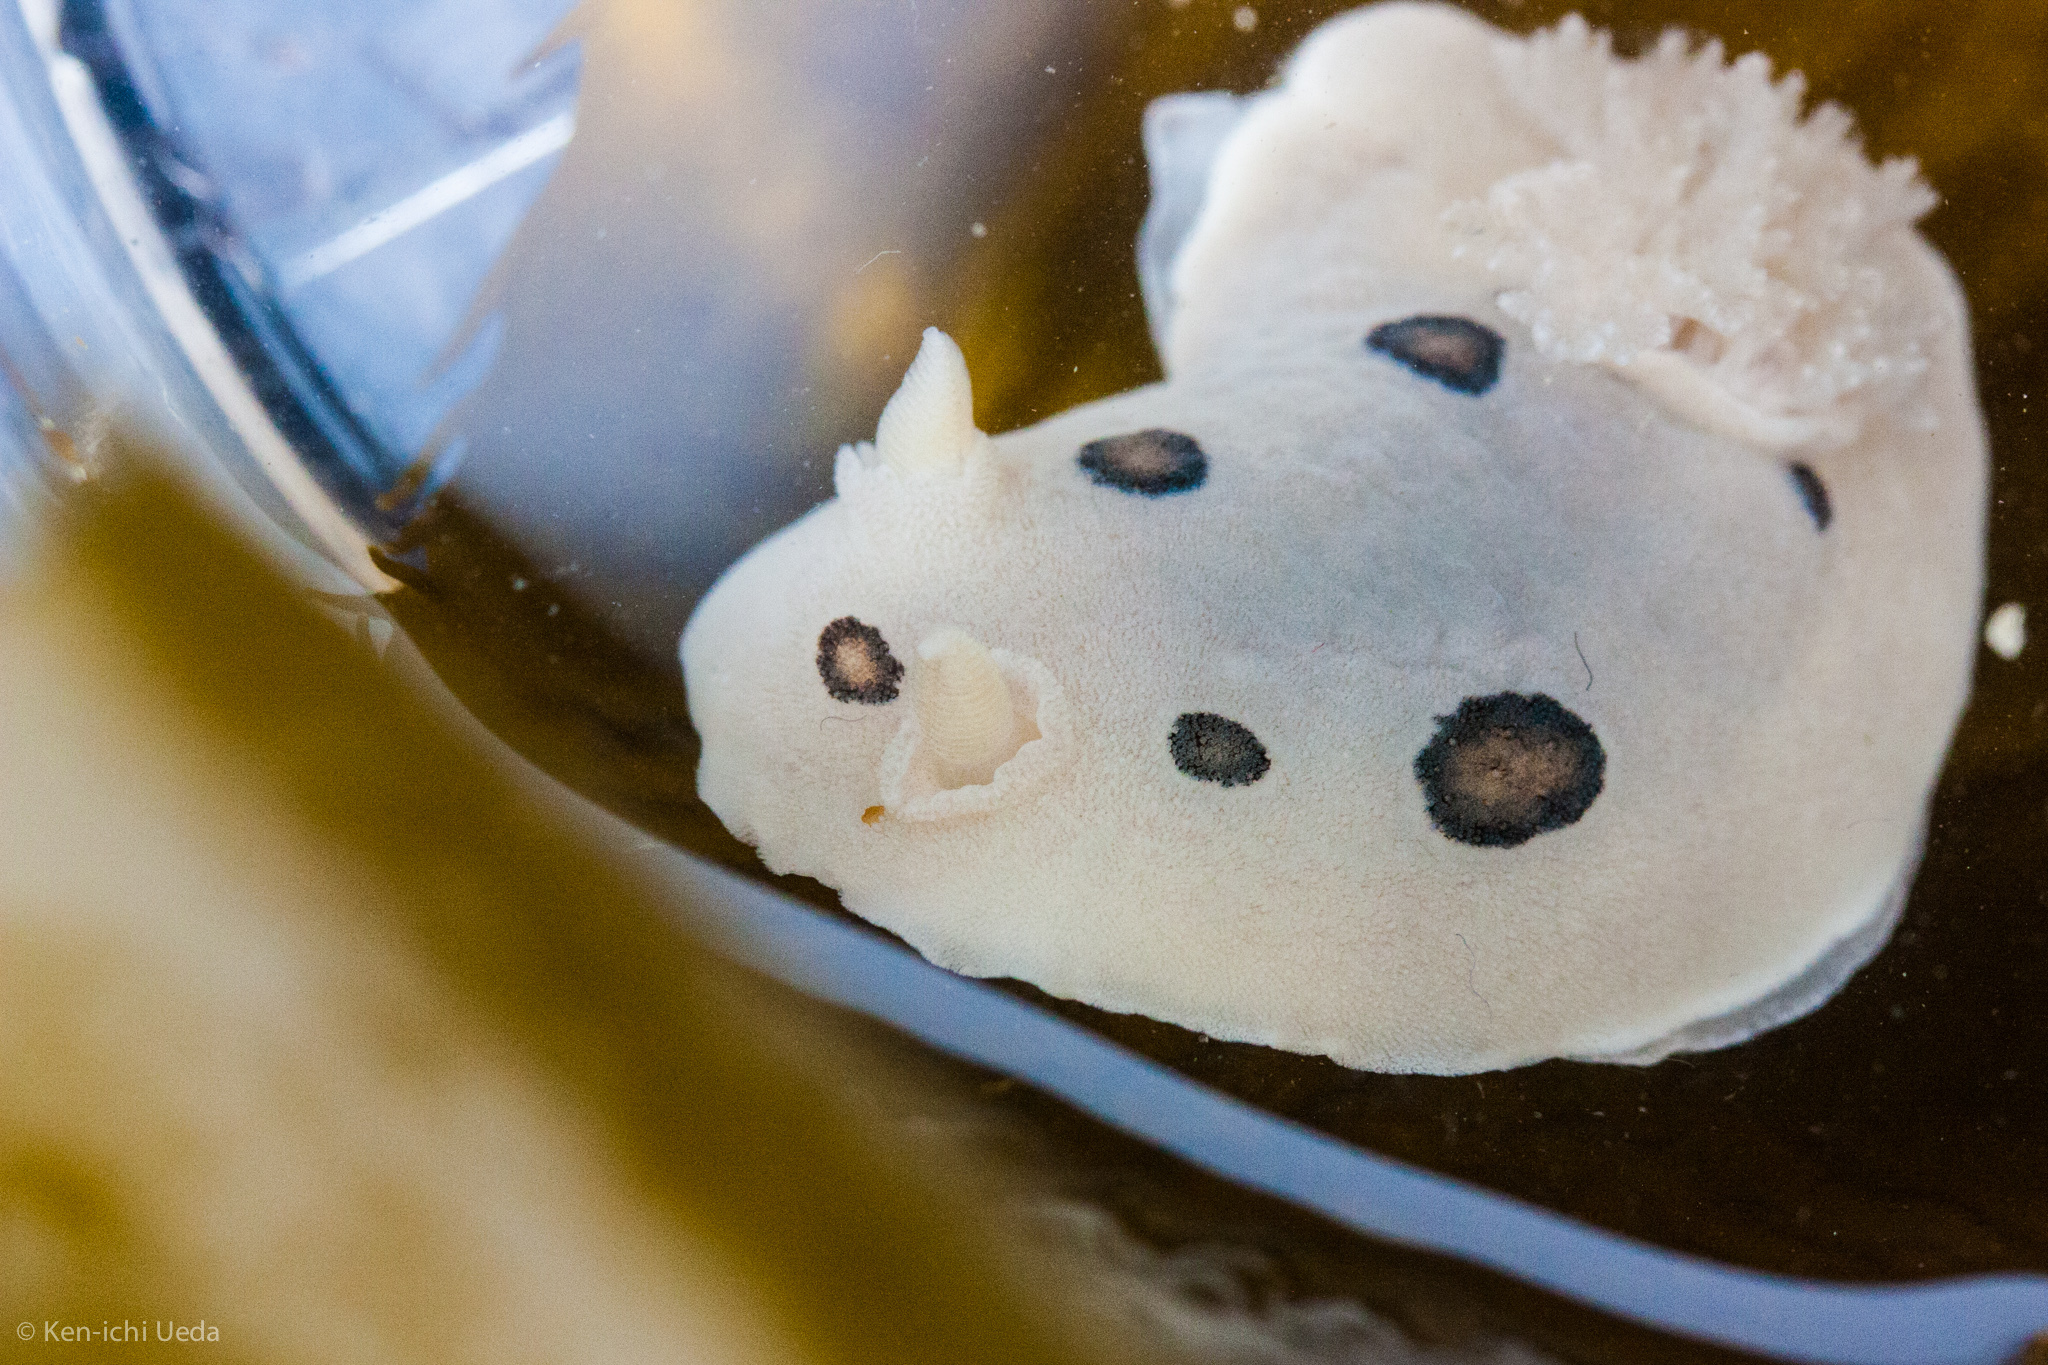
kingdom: Animalia
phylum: Mollusca
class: Gastropoda
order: Nudibranchia
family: Discodorididae
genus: Diaulula
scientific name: Diaulula sandiegensis
